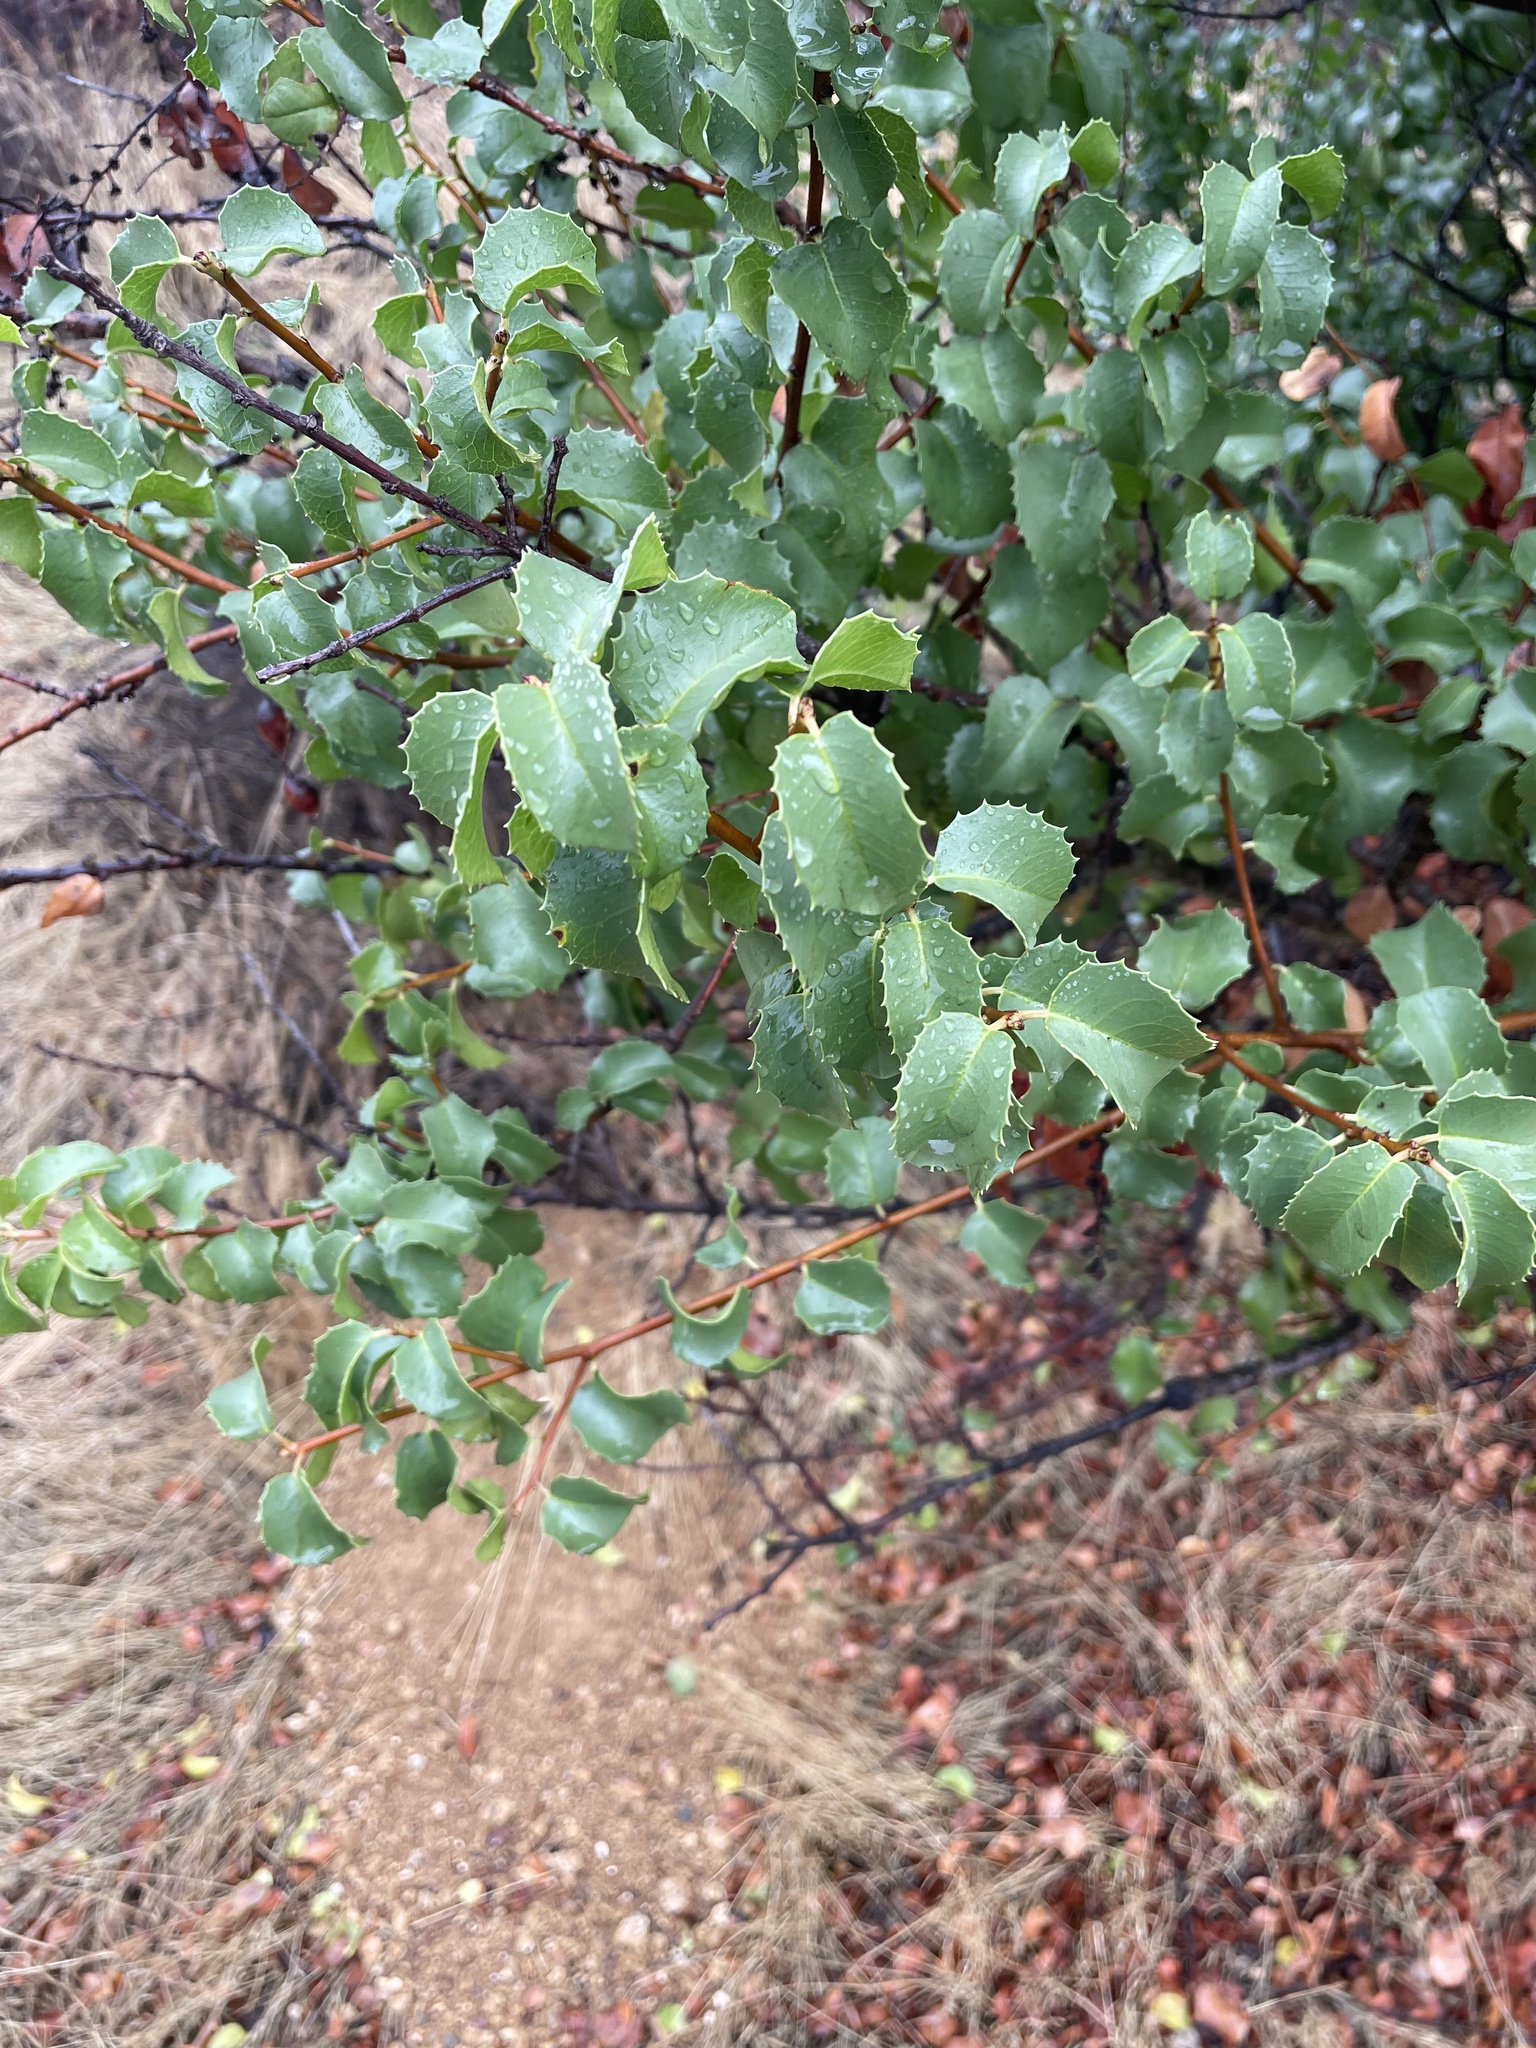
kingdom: Plantae
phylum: Tracheophyta
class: Magnoliopsida
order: Rosales
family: Rosaceae
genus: Prunus
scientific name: Prunus ilicifolia
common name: Hollyleaf cherry
